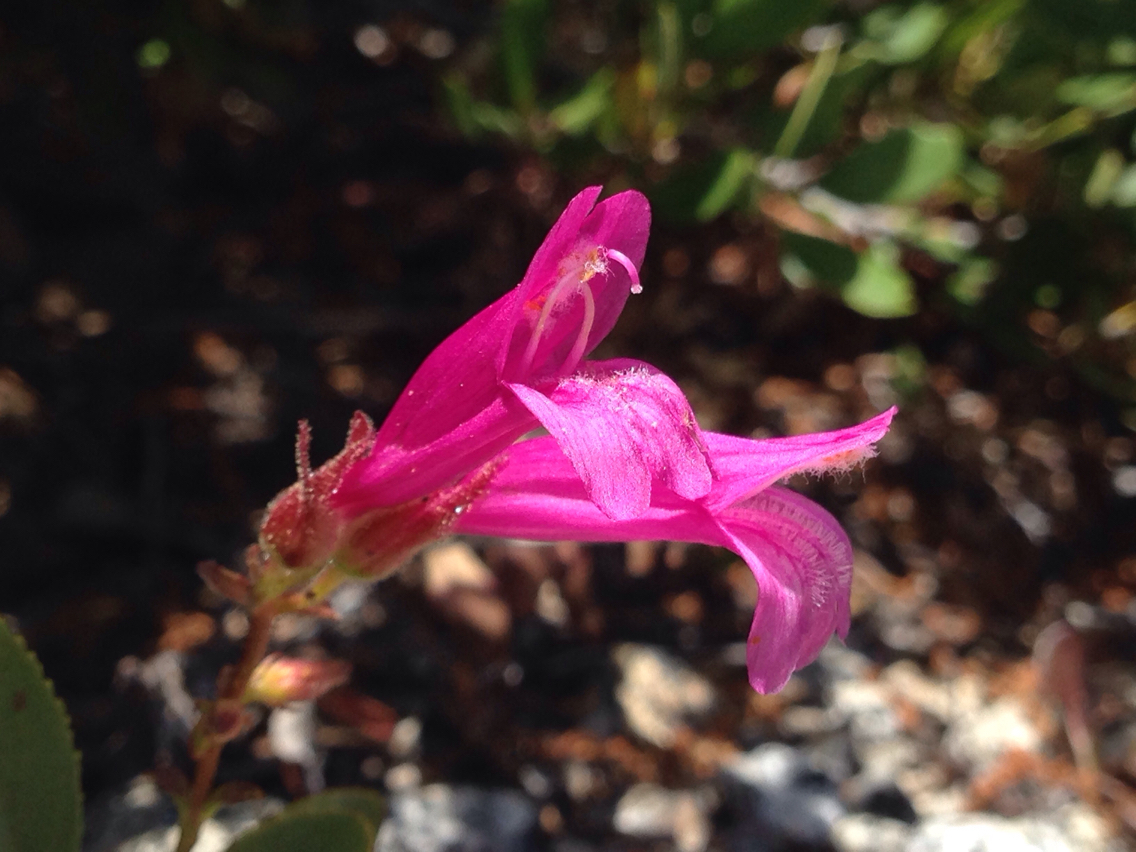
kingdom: Plantae
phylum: Tracheophyta
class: Magnoliopsida
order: Lamiales
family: Plantaginaceae
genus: Penstemon
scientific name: Penstemon newberryi
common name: Mountain-pride
